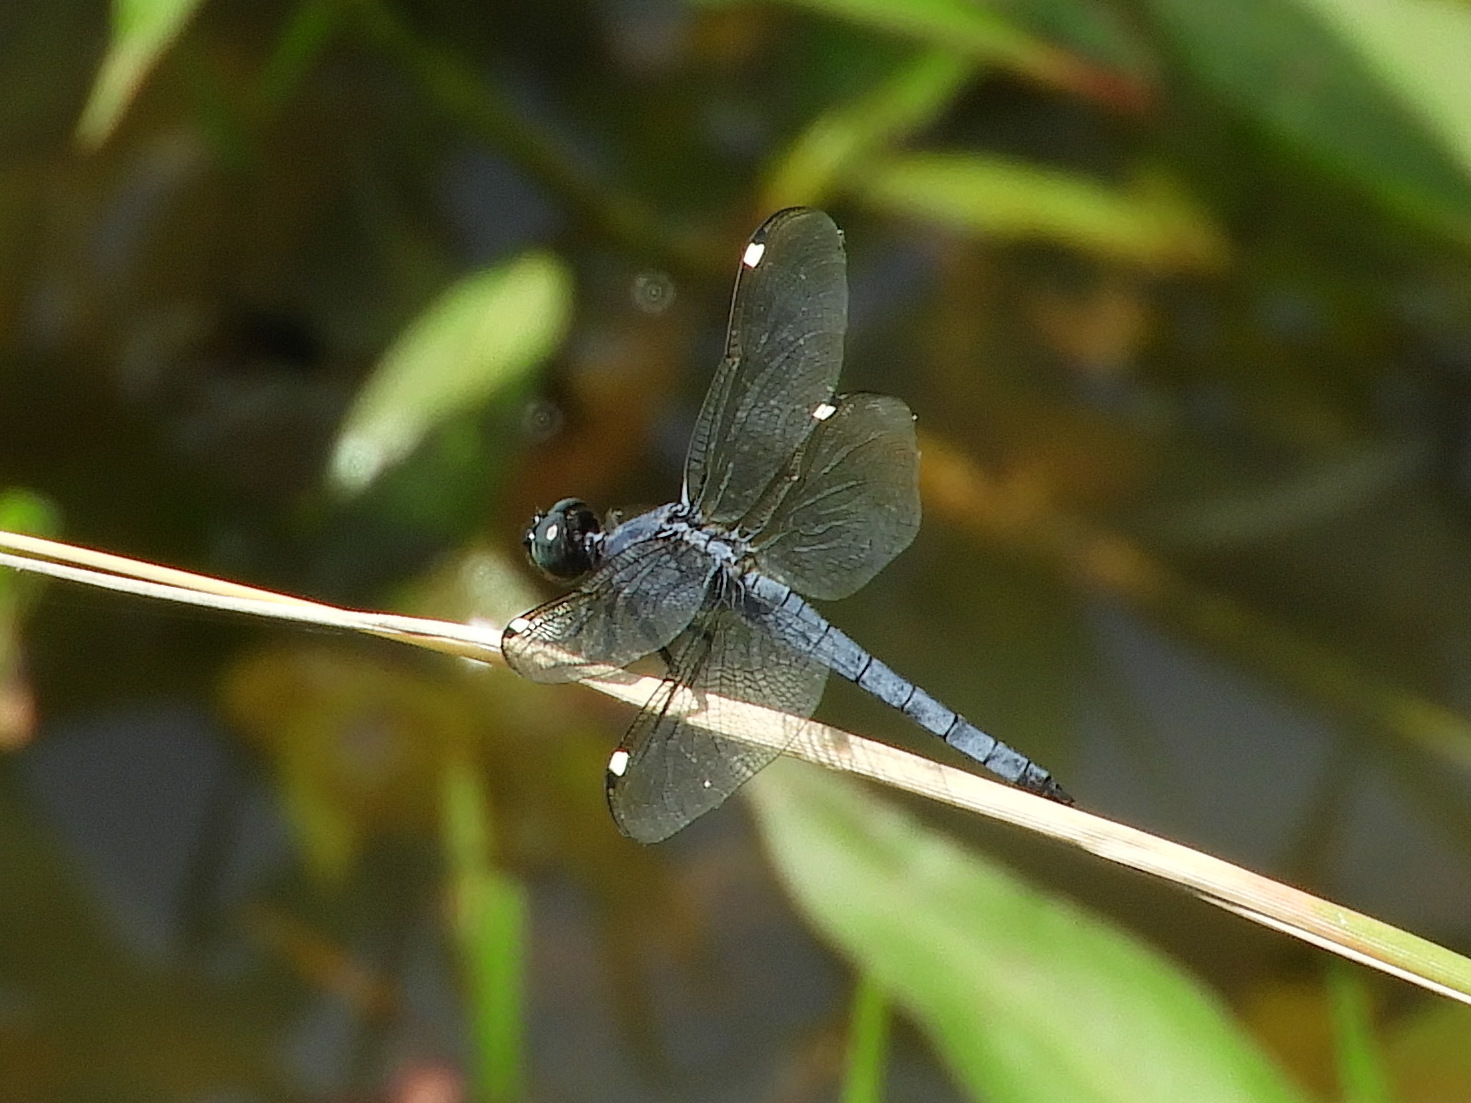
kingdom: Animalia
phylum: Arthropoda
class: Insecta
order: Odonata
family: Libellulidae
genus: Libellula
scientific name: Libellula cyanea
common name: Spangled skimmer
